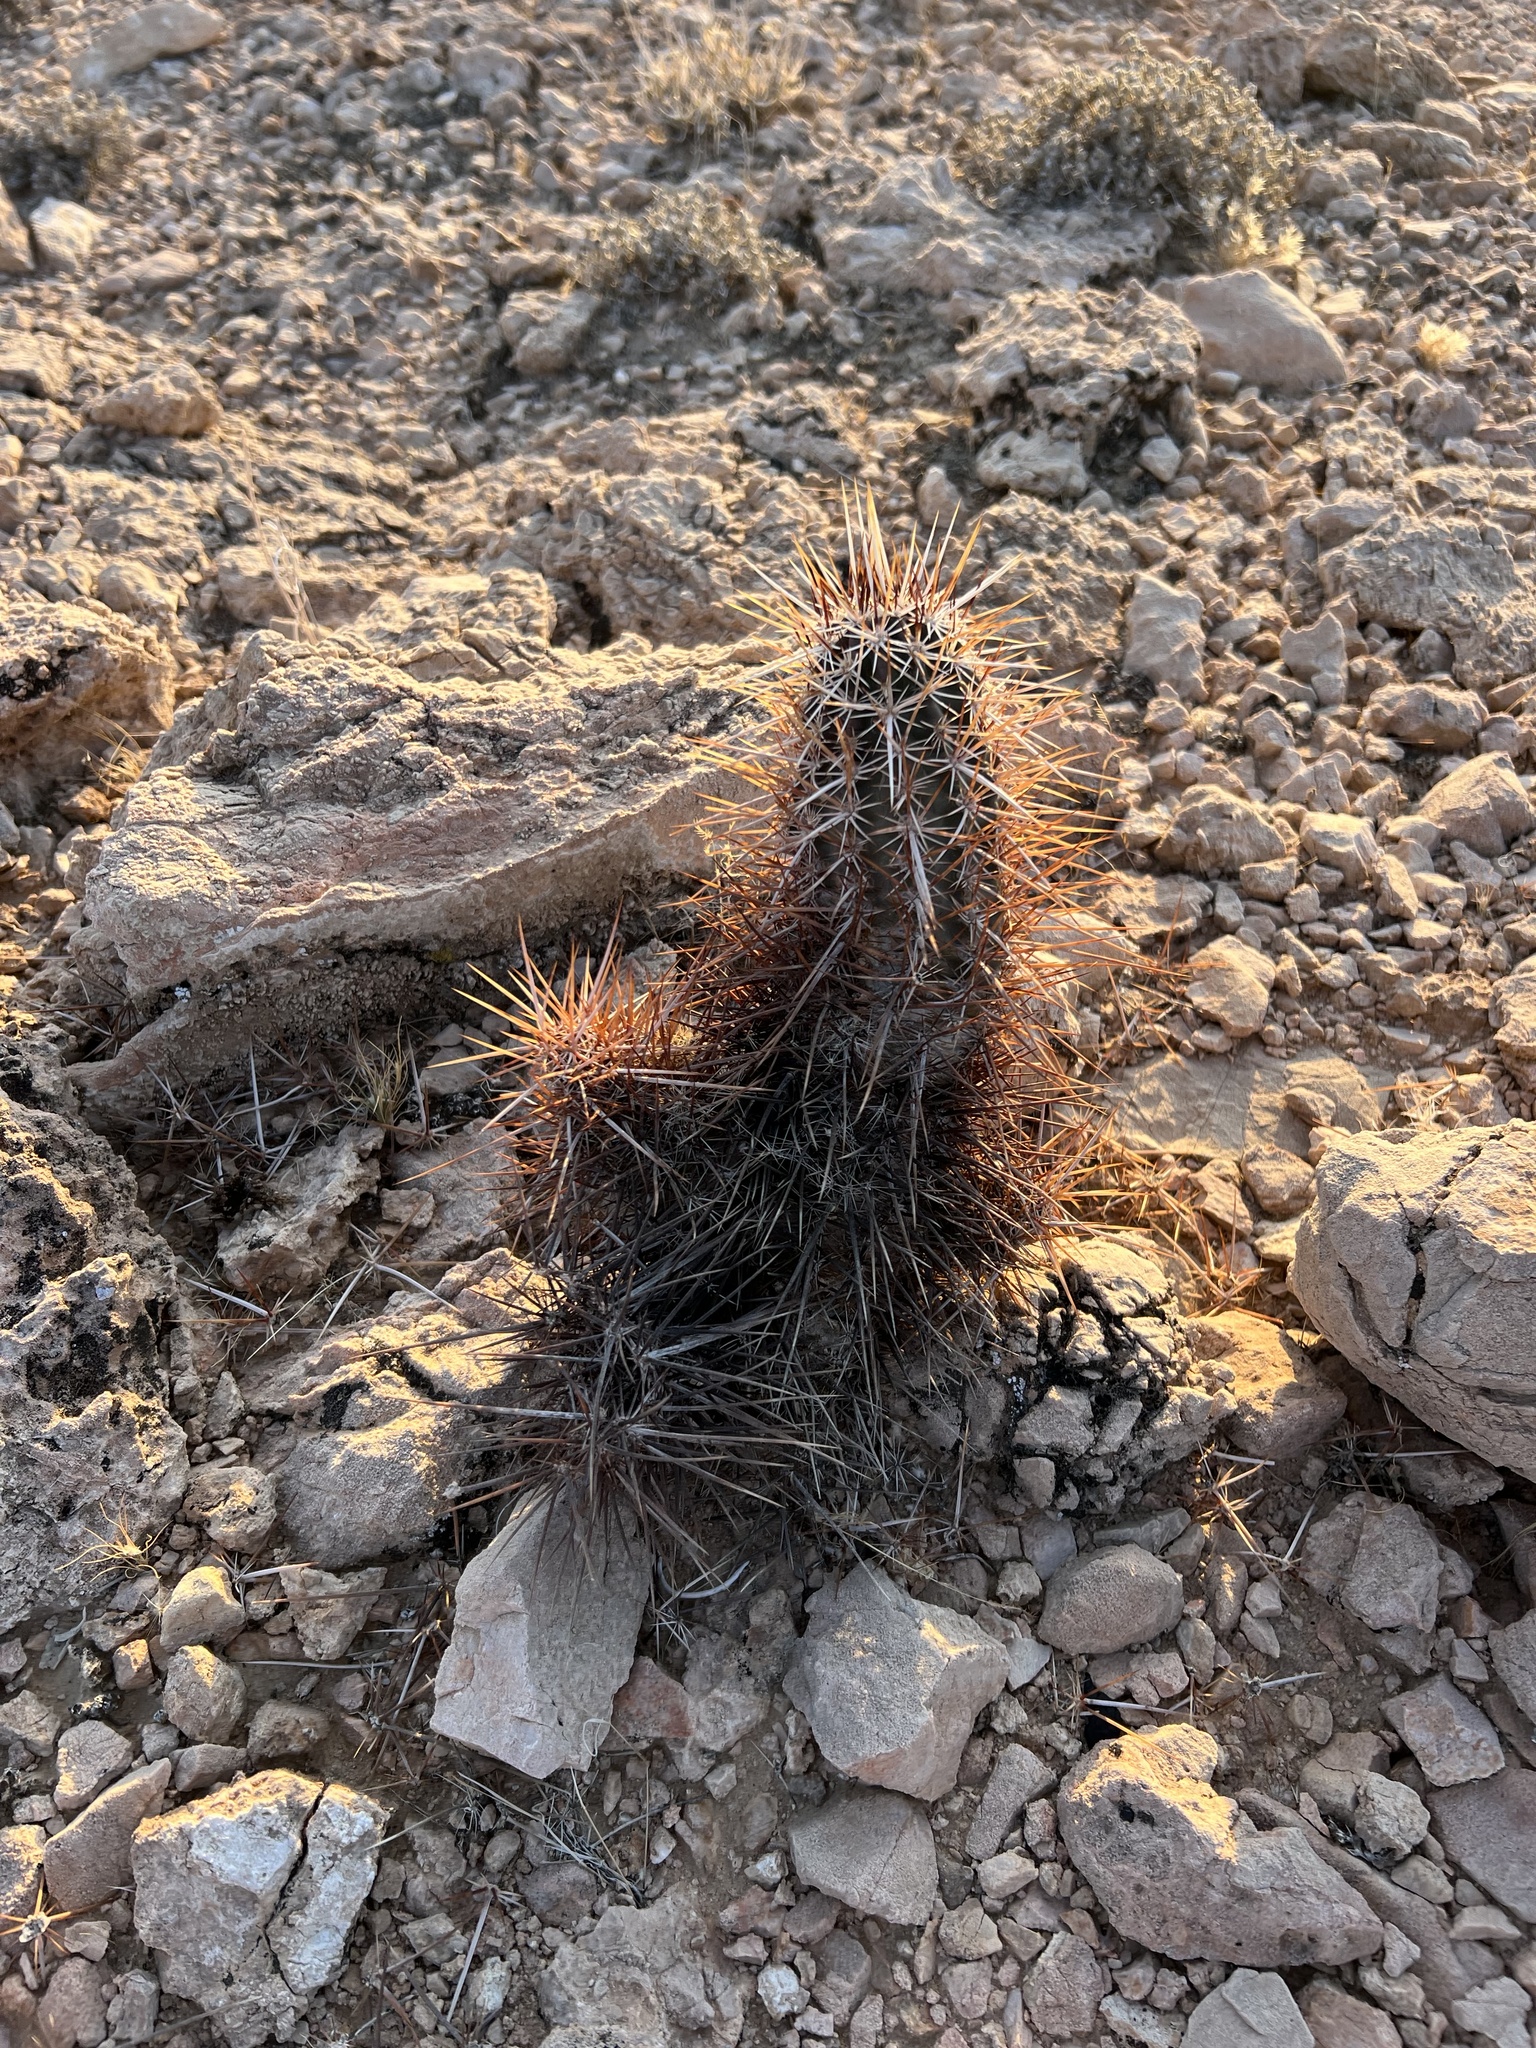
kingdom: Plantae
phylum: Tracheophyta
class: Magnoliopsida
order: Caryophyllales
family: Cactaceae
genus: Echinocereus
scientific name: Echinocereus engelmannii
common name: Engelmann's hedgehog cactus
